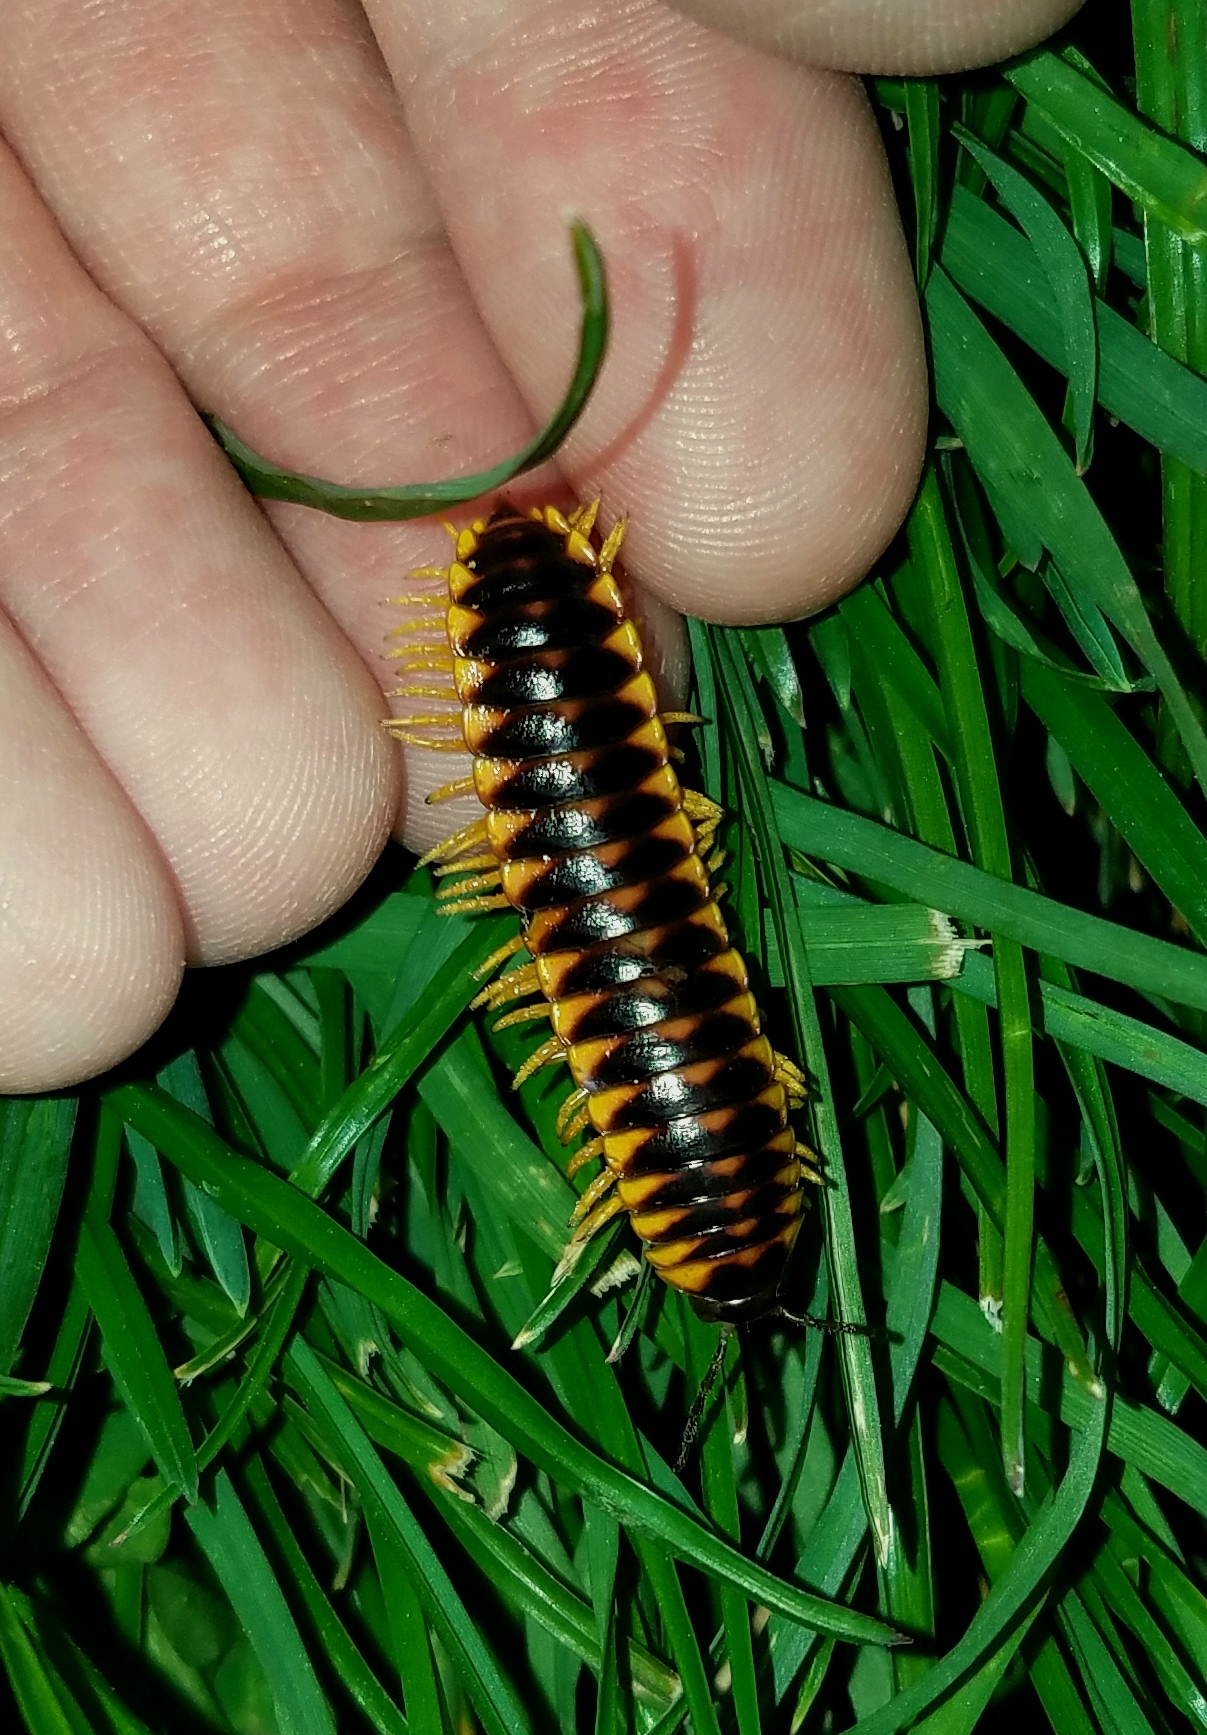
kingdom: Animalia
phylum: Arthropoda
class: Diplopoda
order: Polydesmida
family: Xystodesmidae
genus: Pleuroloma
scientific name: Pleuroloma flavipes
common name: Yellow-legged pleuroloma
